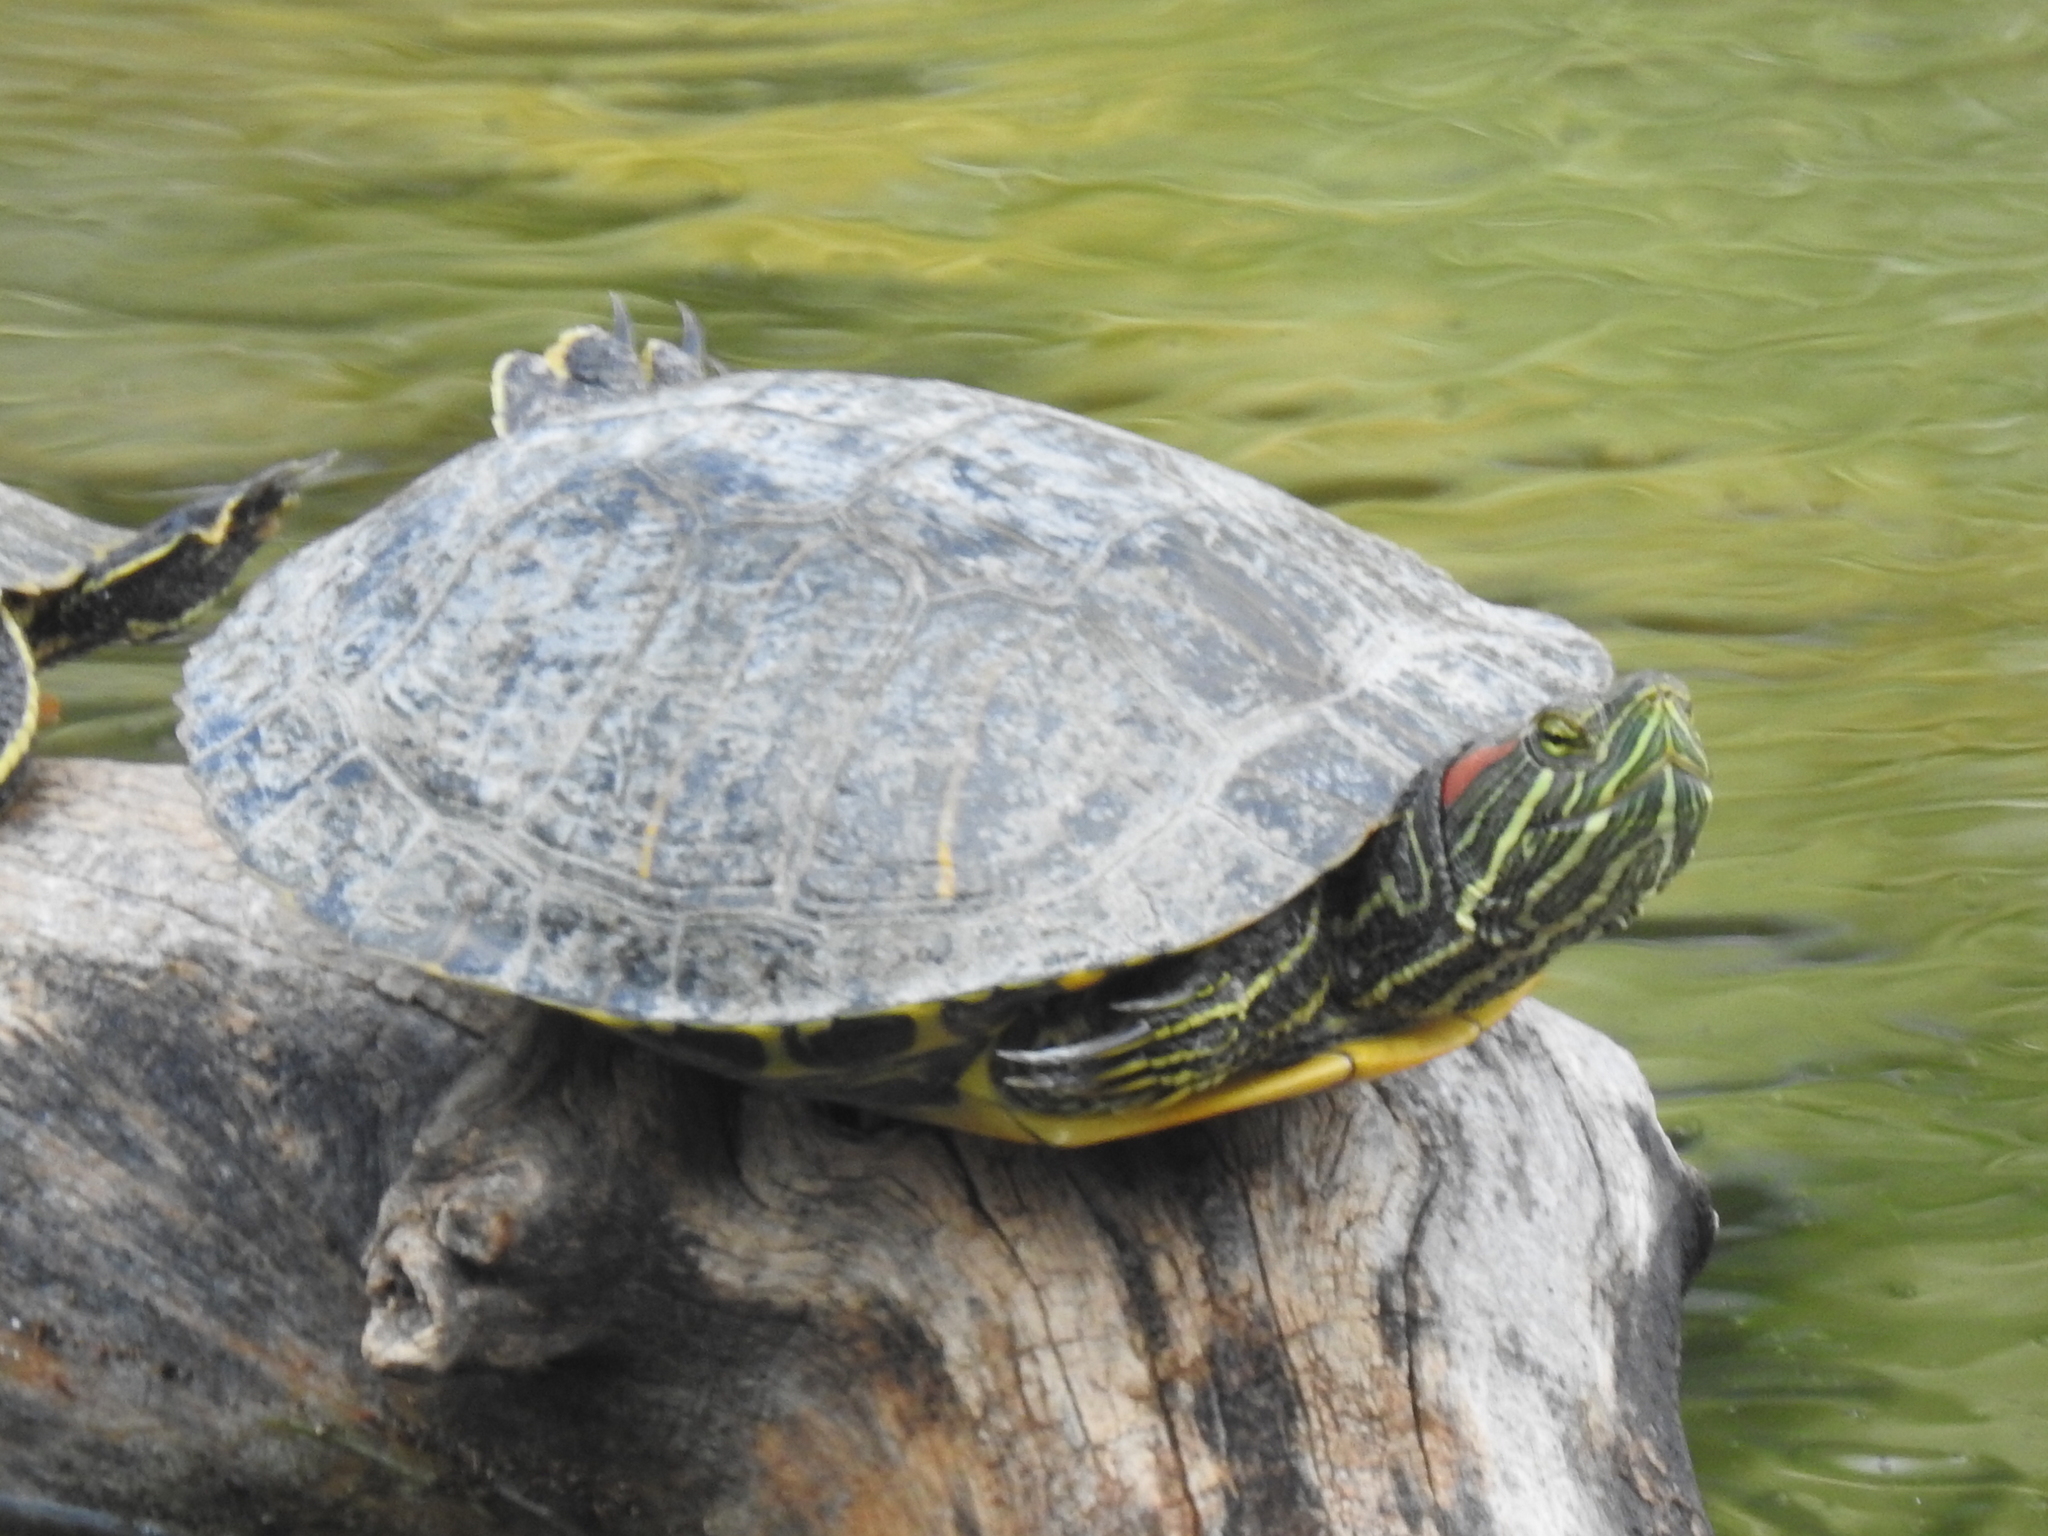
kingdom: Animalia
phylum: Chordata
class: Testudines
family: Emydidae
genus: Trachemys
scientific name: Trachemys scripta
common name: Slider
